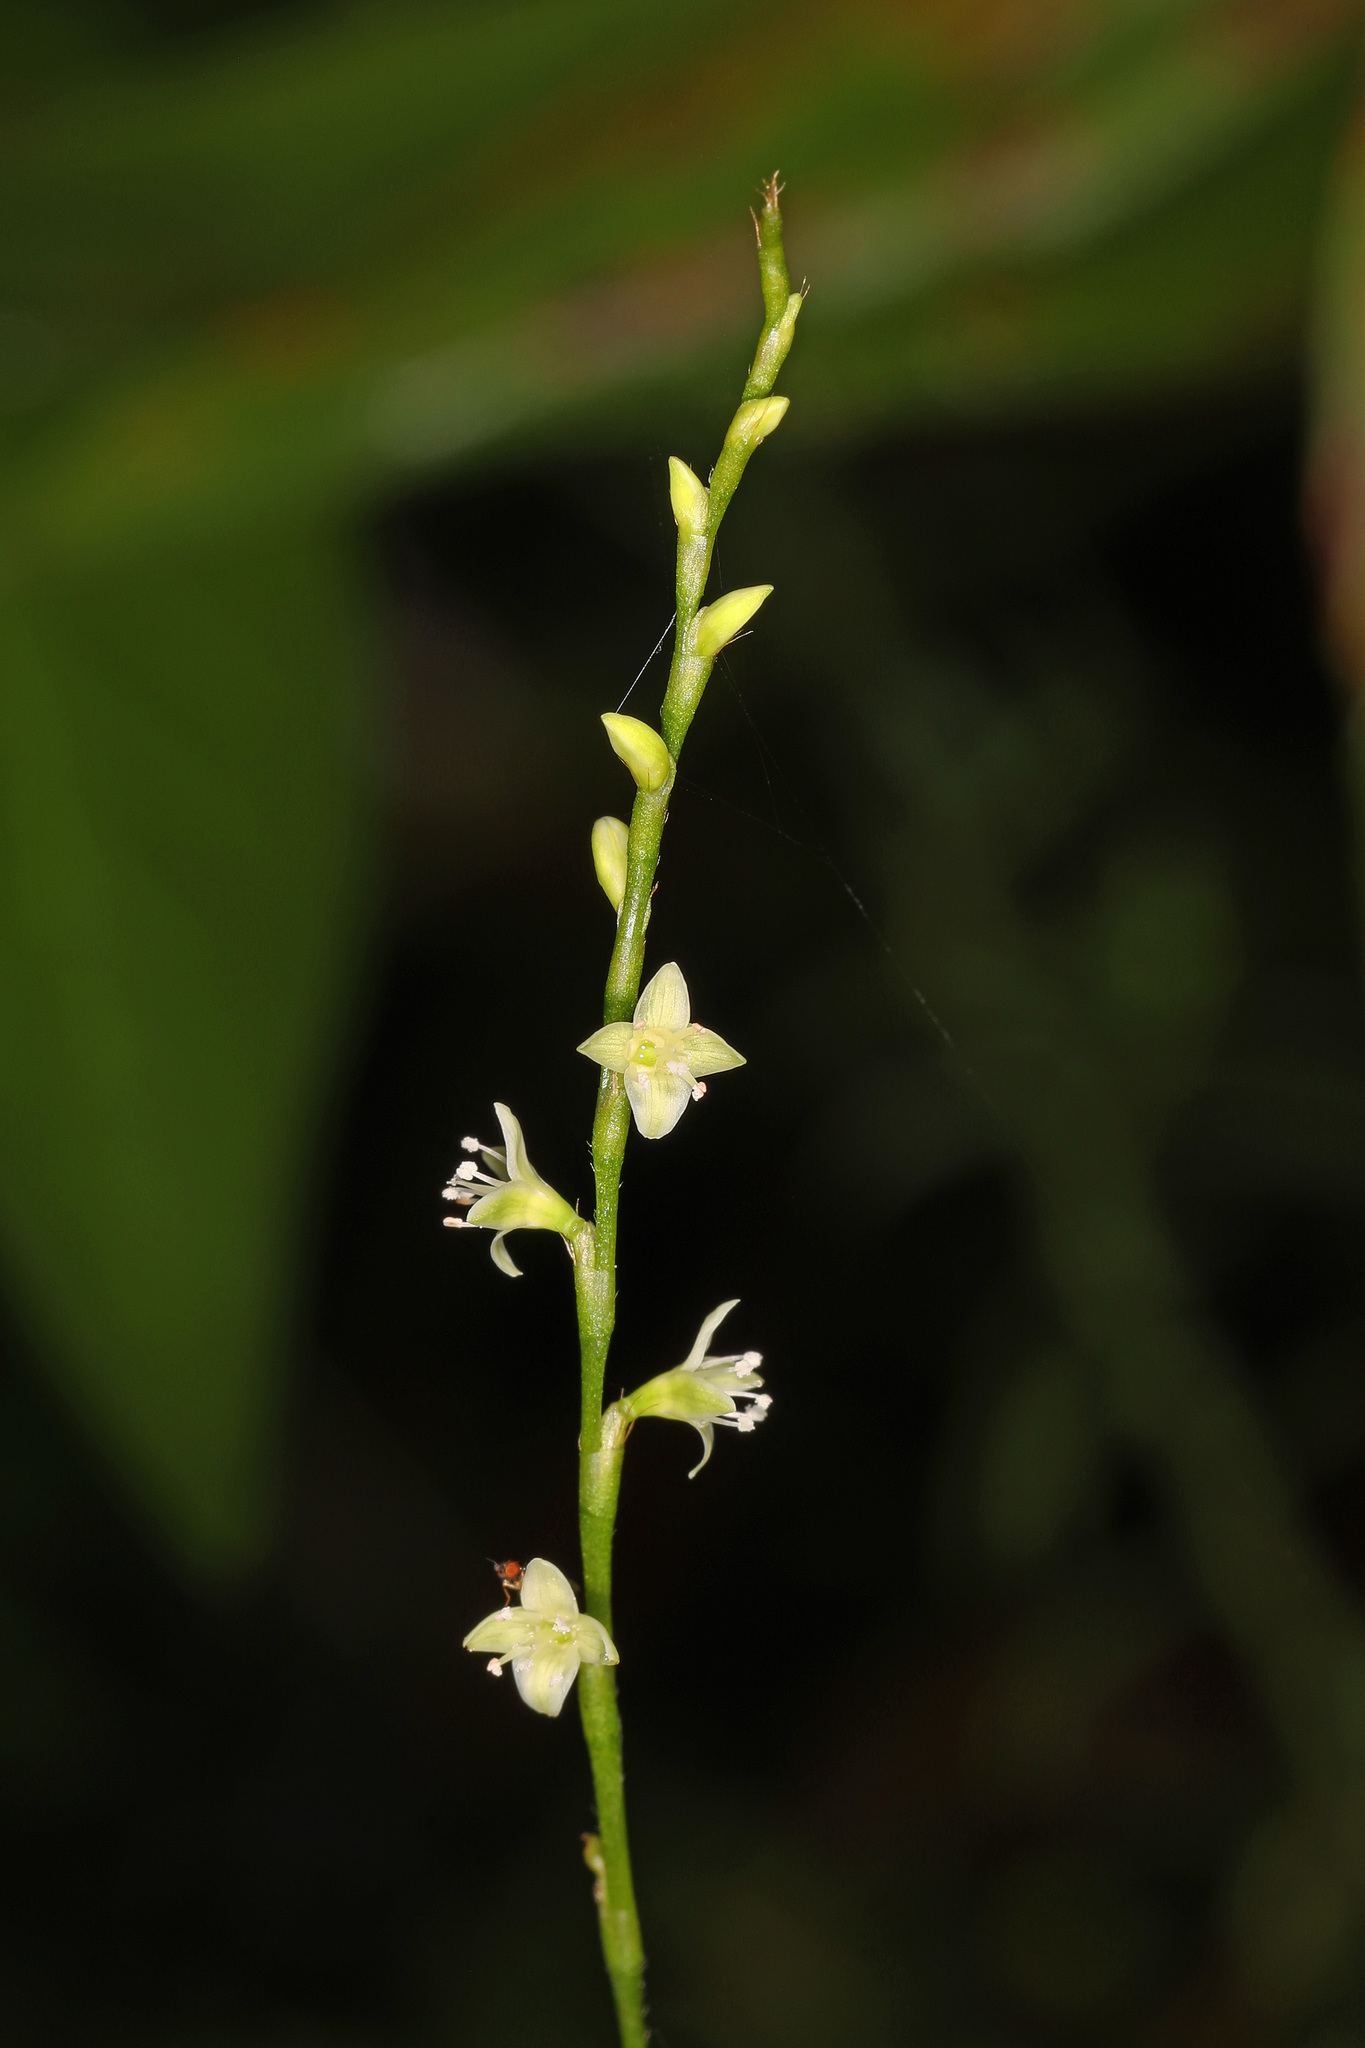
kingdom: Plantae
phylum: Tracheophyta
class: Magnoliopsida
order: Caryophyllales
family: Polygonaceae
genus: Persicaria
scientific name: Persicaria virginiana
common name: Jumpseed
